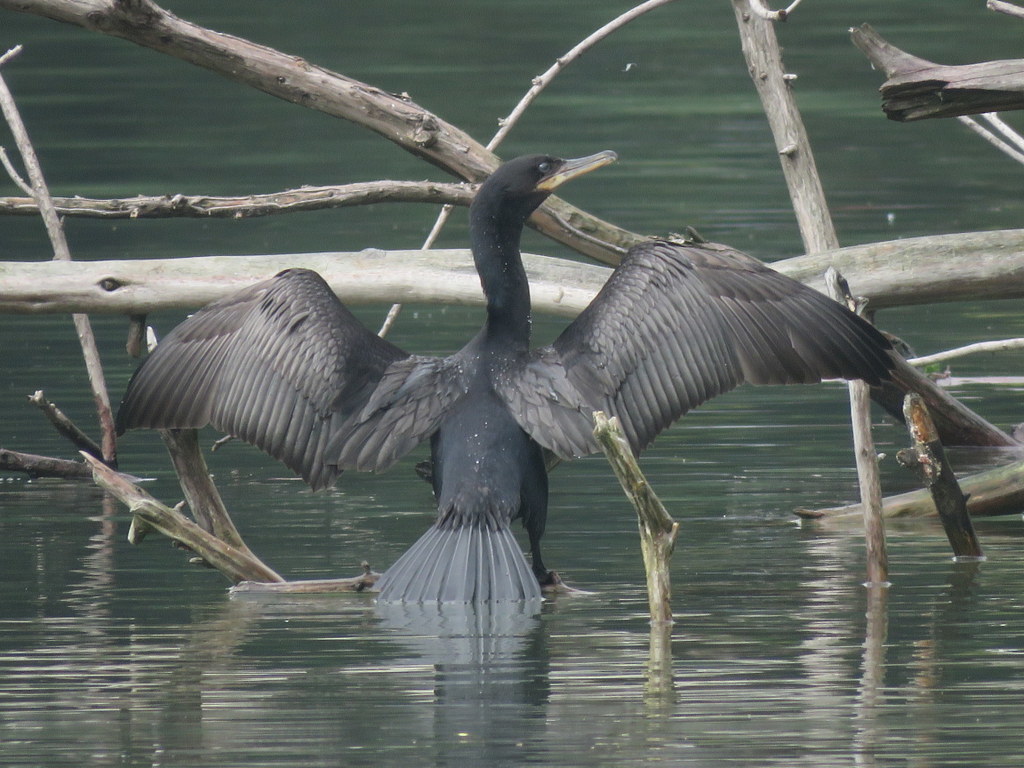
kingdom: Animalia
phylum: Chordata
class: Aves
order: Suliformes
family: Phalacrocoracidae
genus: Phalacrocorax
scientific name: Phalacrocorax brasilianus
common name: Neotropic cormorant
